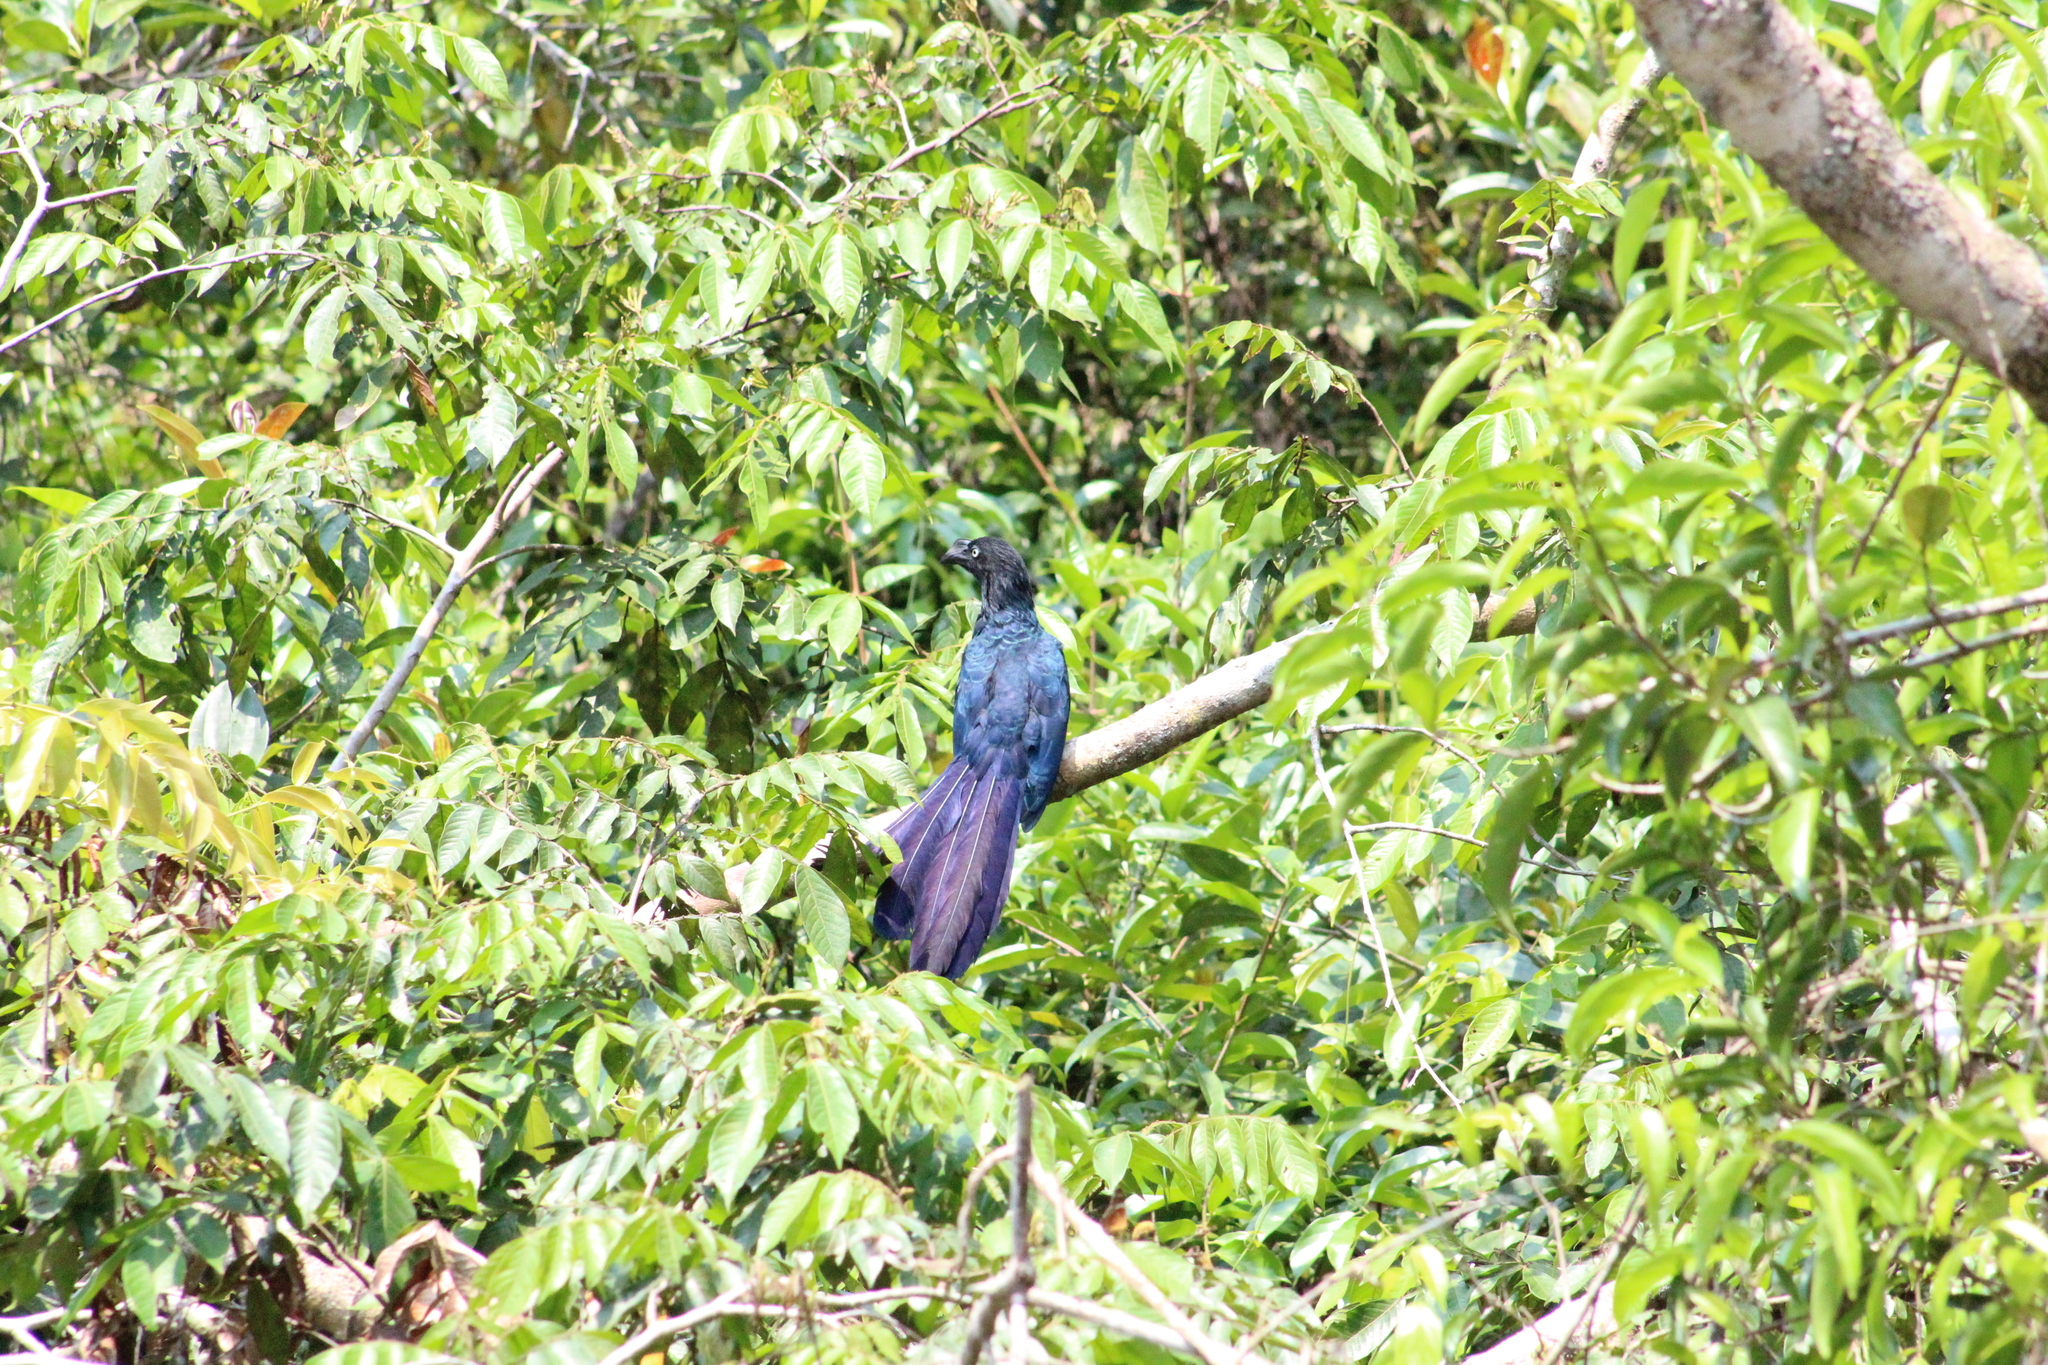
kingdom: Animalia
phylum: Chordata
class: Aves
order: Cuculiformes
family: Cuculidae
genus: Crotophaga
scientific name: Crotophaga major
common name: Greater ani
